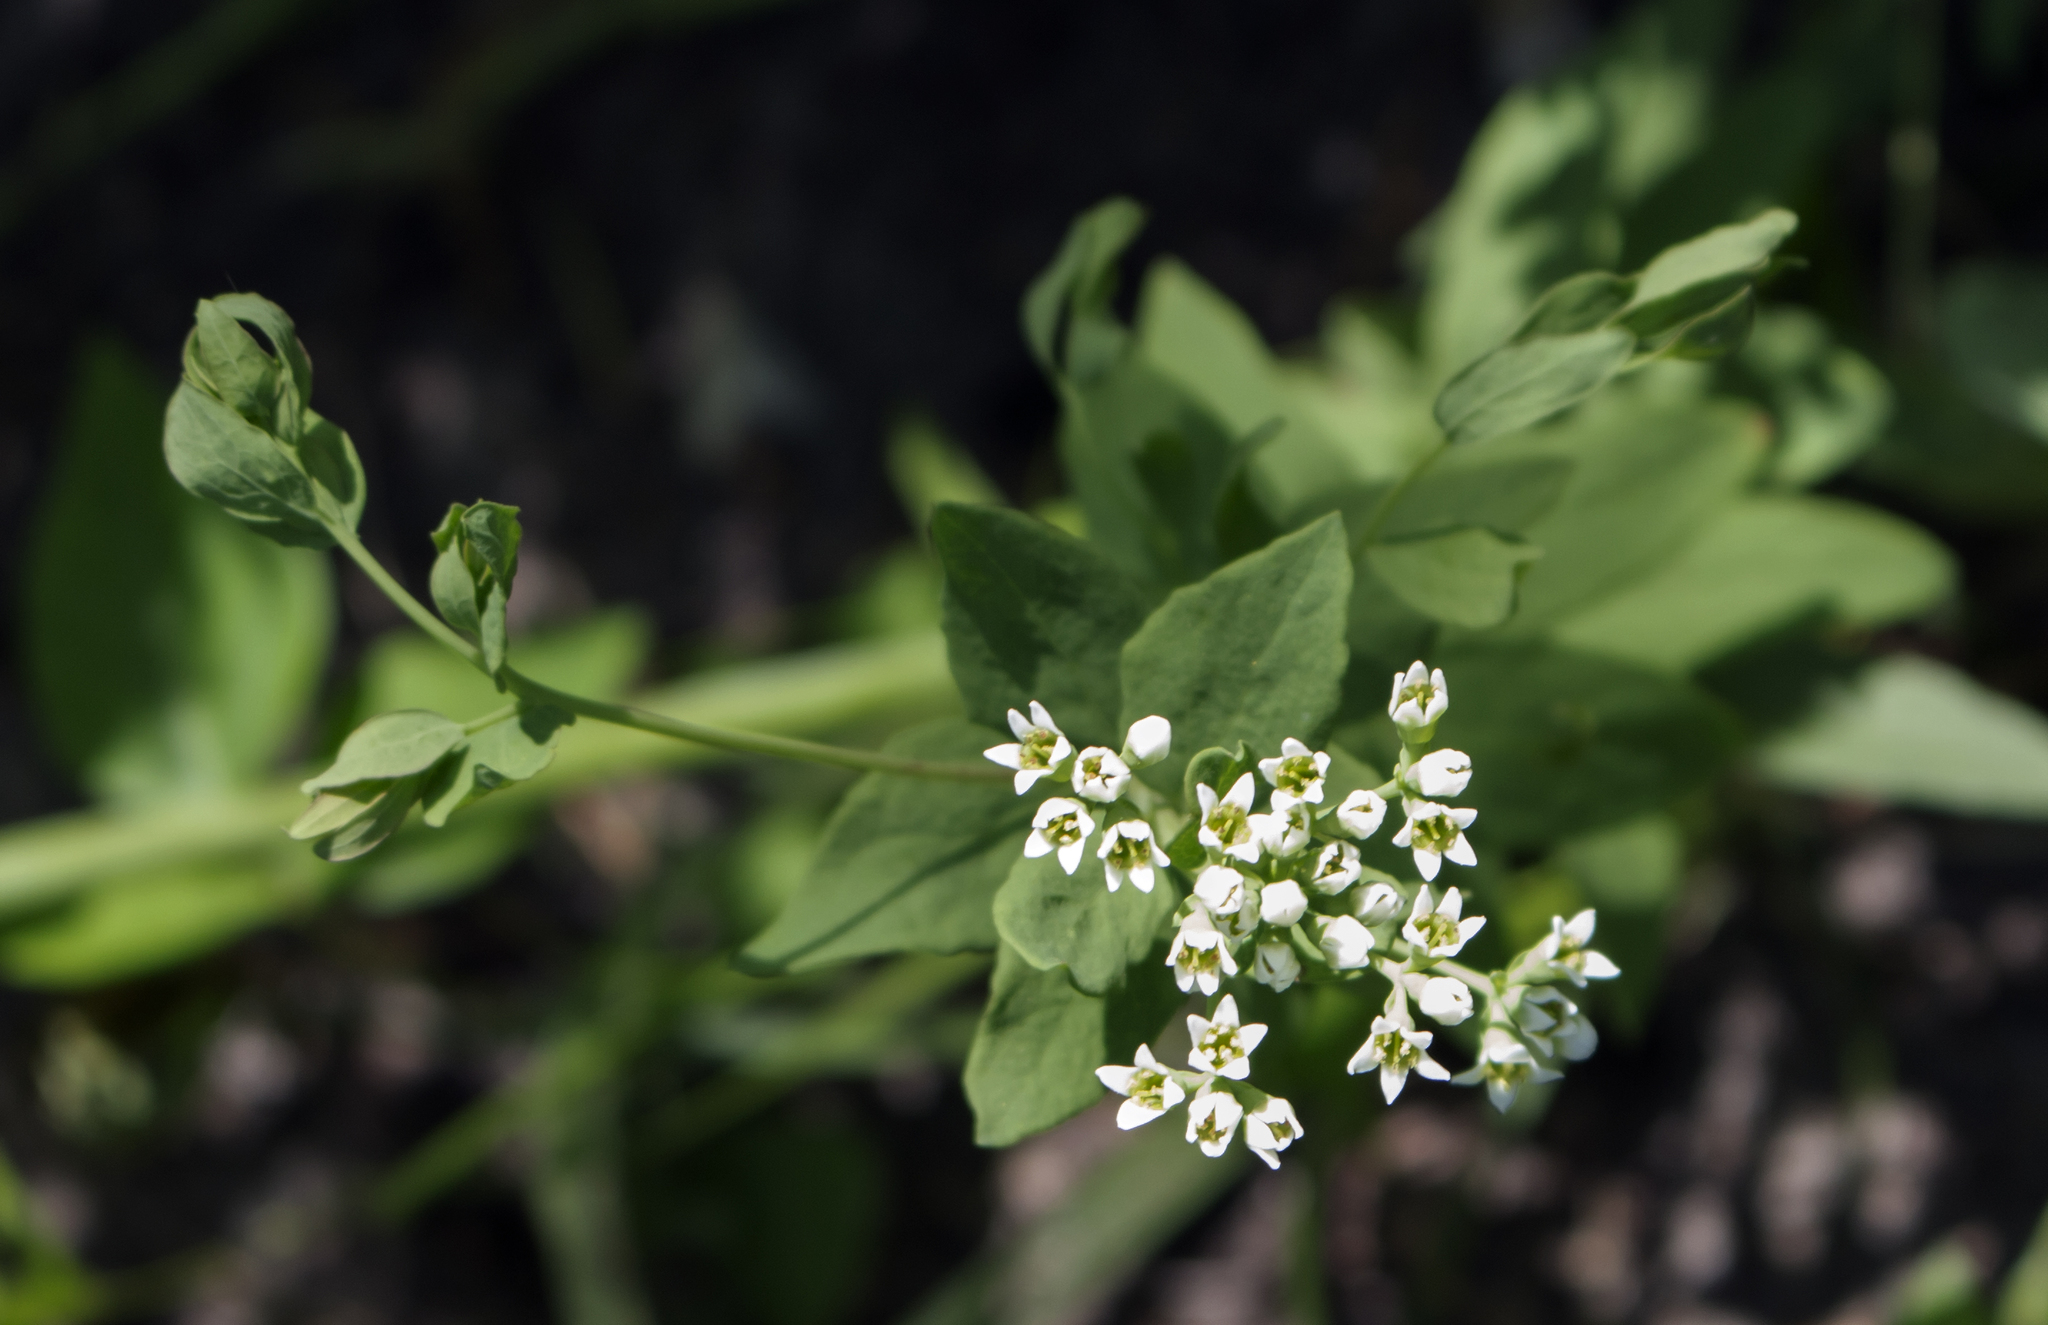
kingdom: Plantae
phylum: Tracheophyta
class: Magnoliopsida
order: Santalales
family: Comandraceae
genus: Comandra
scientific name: Comandra umbellata
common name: Bastard toadflax
